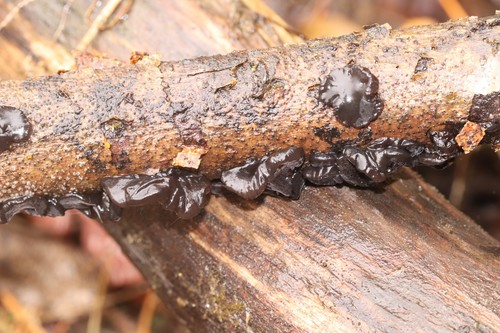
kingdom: Fungi
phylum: Basidiomycota
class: Agaricomycetes
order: Auriculariales
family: Auriculariaceae
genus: Exidia
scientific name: Exidia recisa
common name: Amber jelly
